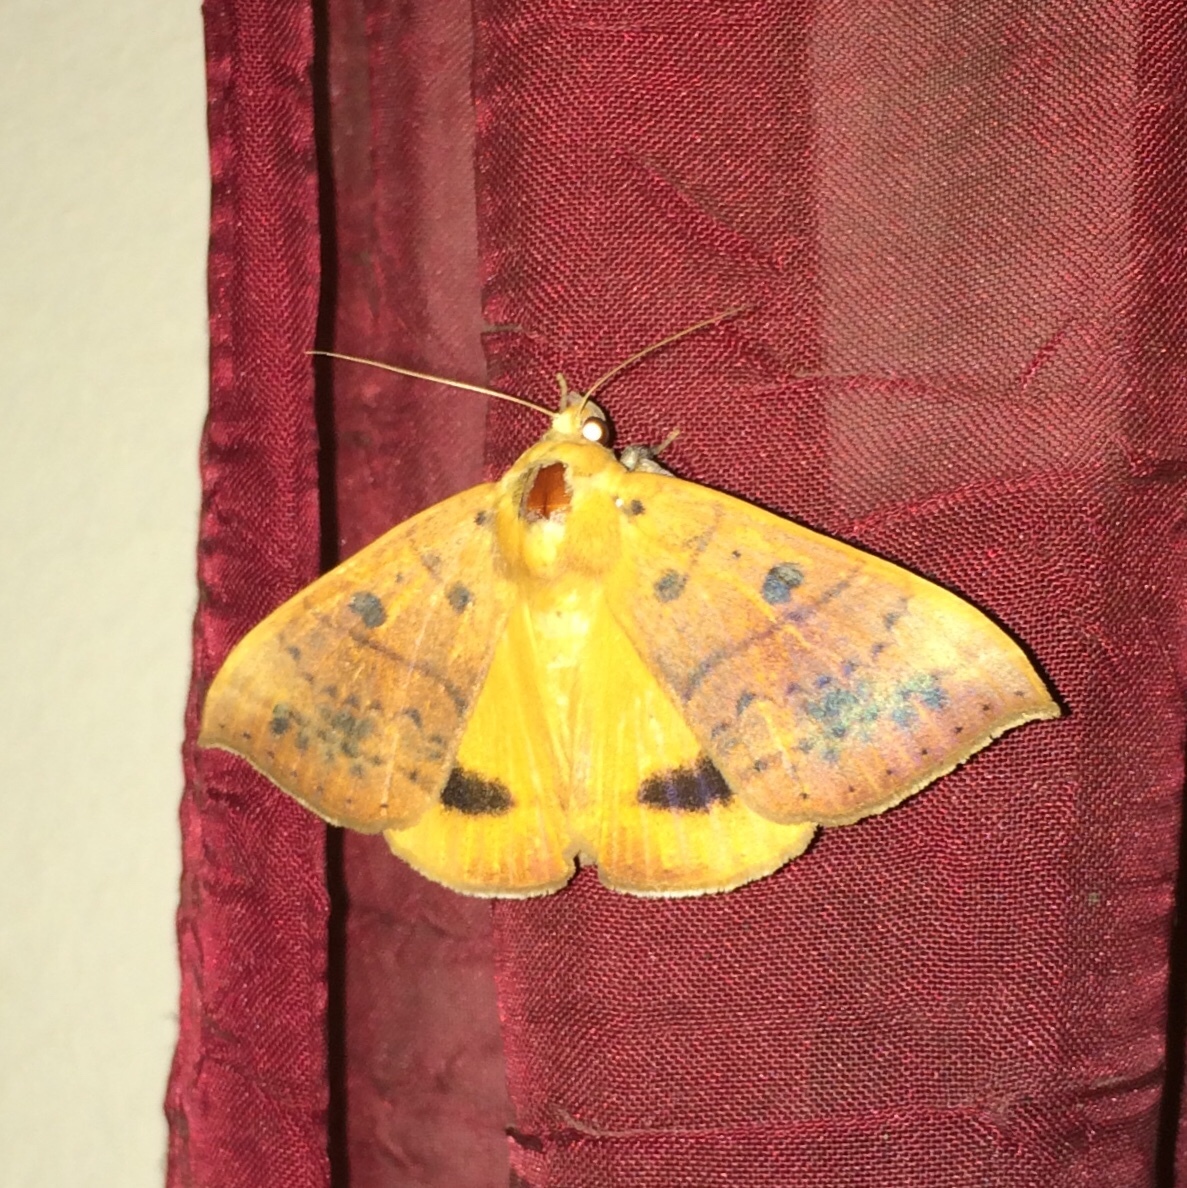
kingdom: Animalia
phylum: Arthropoda
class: Insecta
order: Lepidoptera
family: Erebidae
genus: Achaea
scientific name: Achaea klugii
